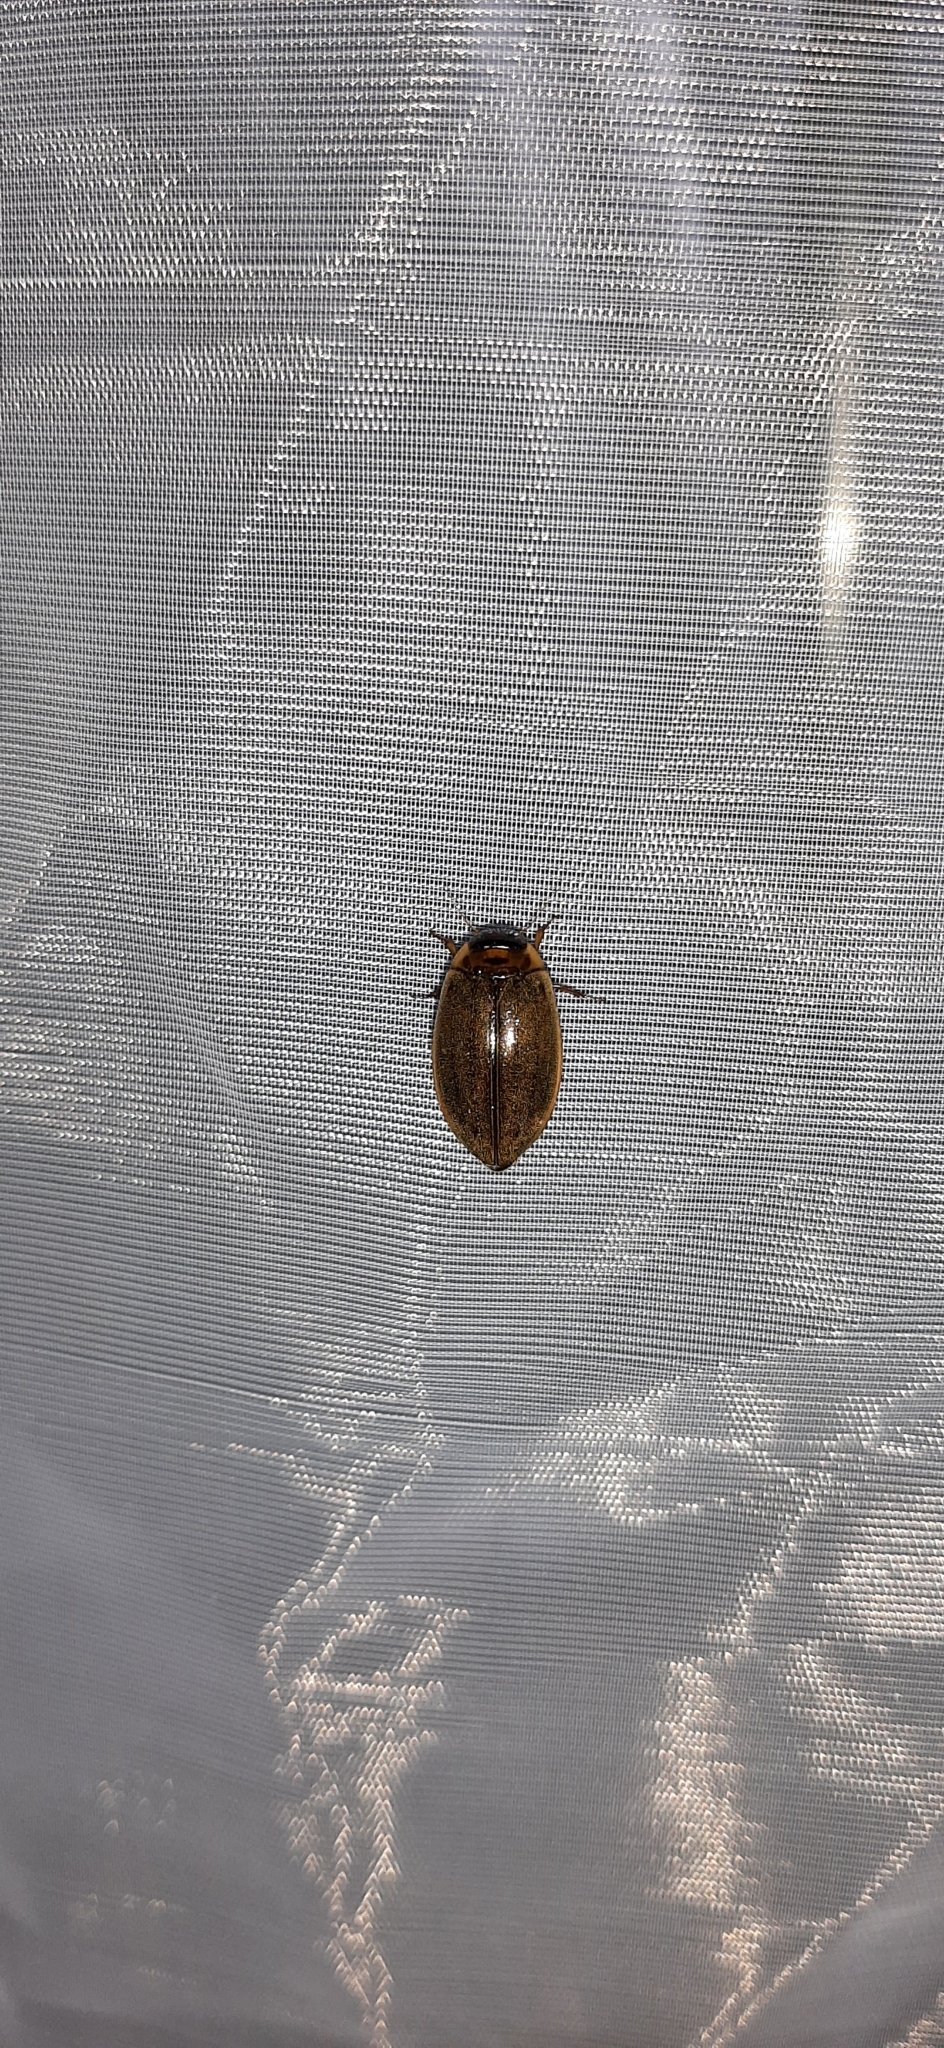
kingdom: Animalia
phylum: Arthropoda
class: Insecta
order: Coleoptera
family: Dytiscidae
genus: Rhantus
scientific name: Rhantus suturalis
